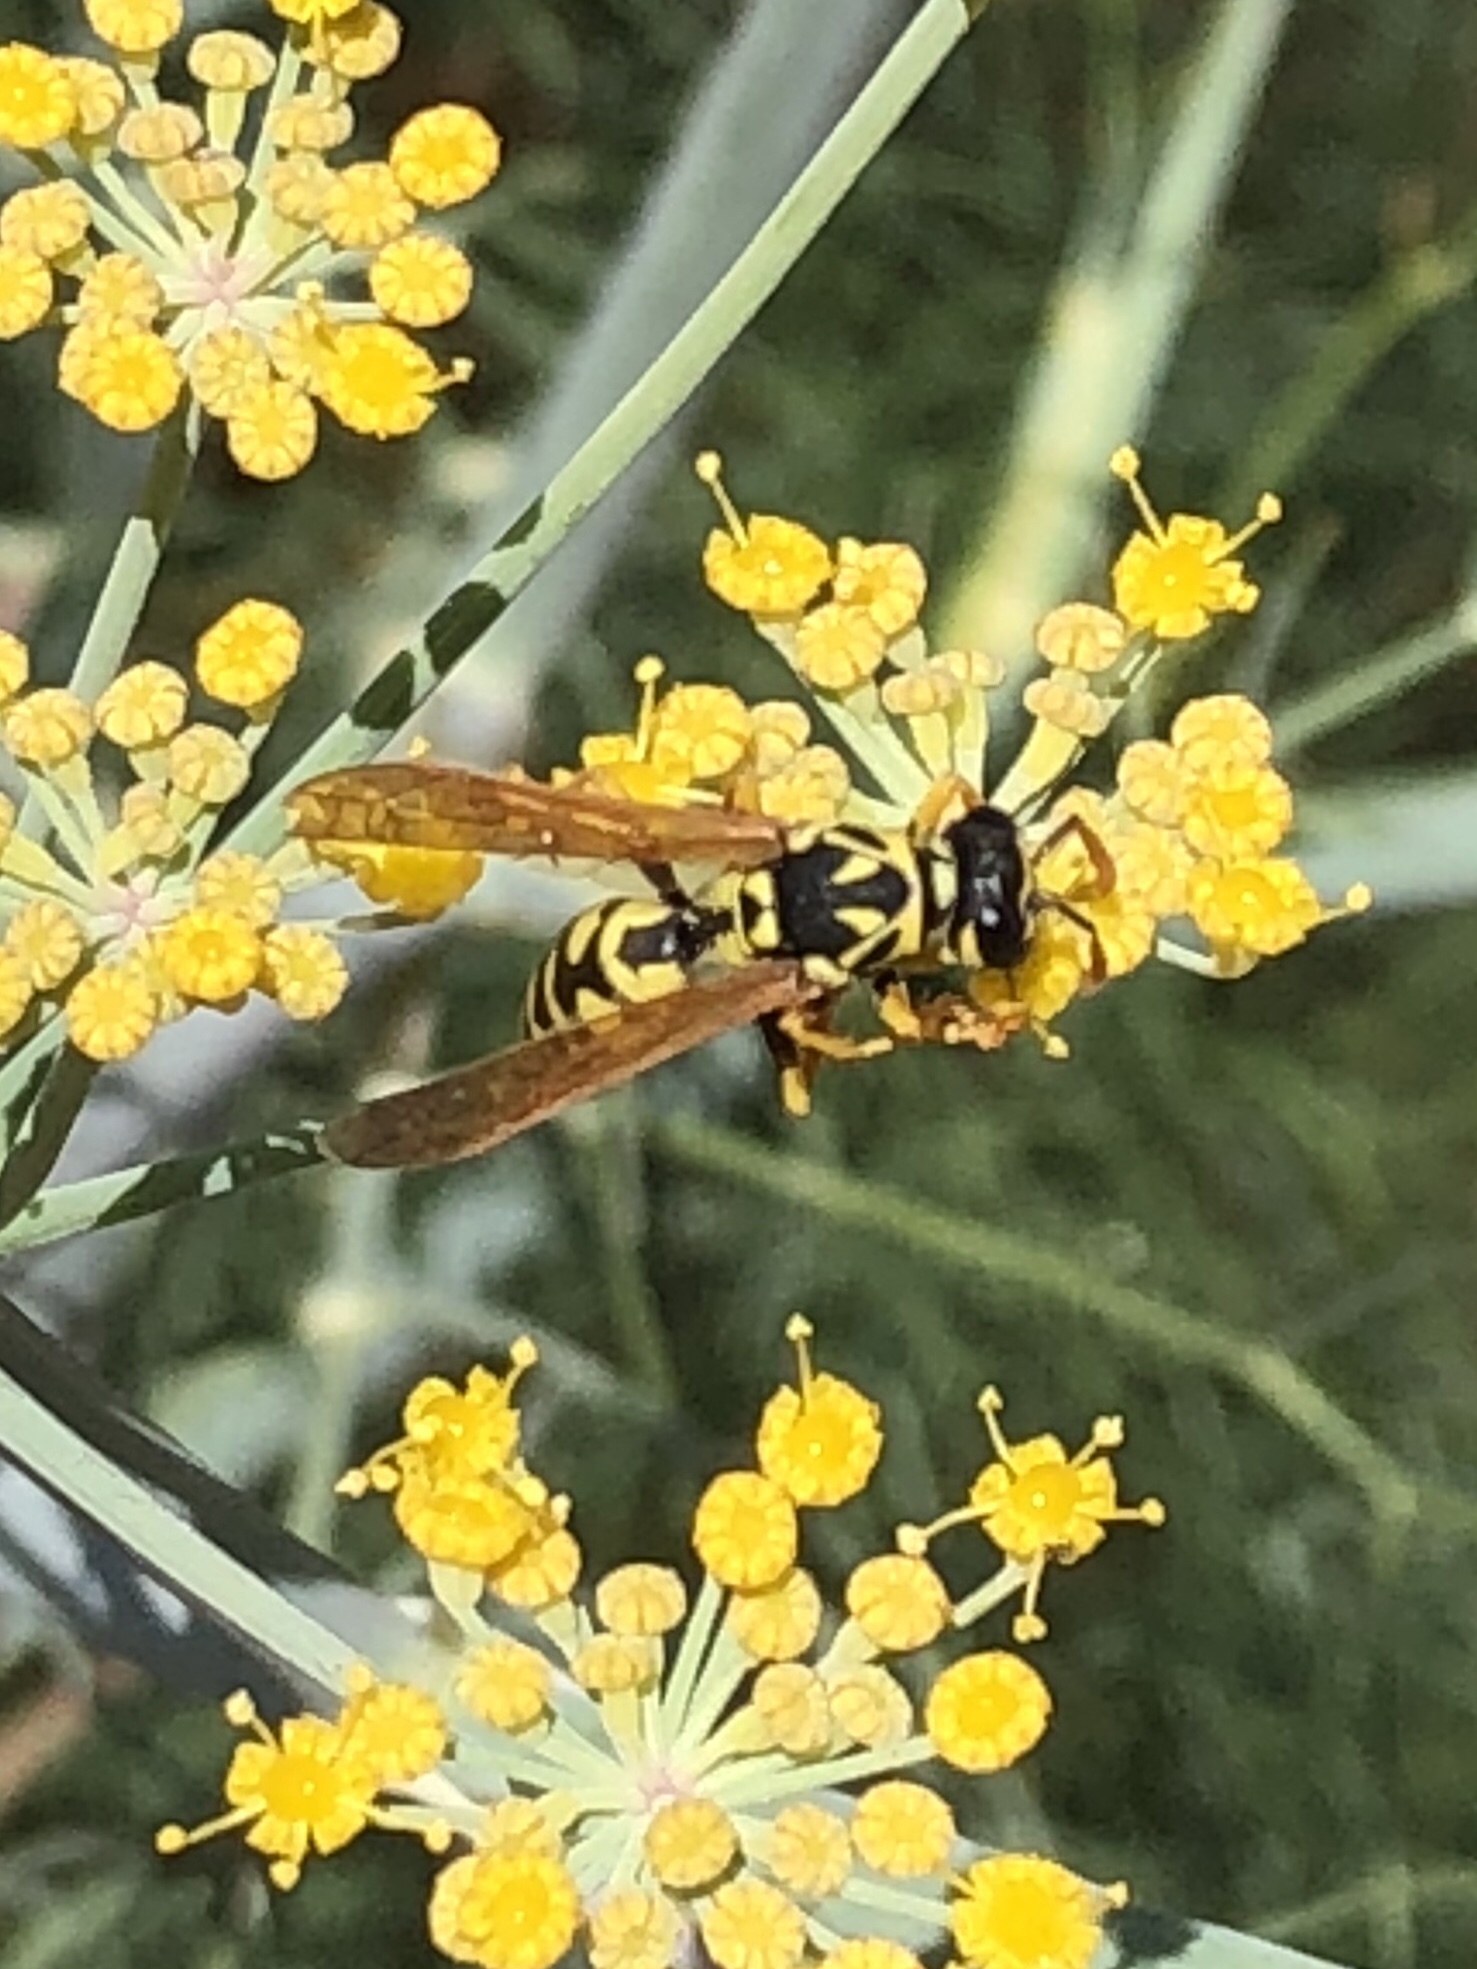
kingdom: Animalia
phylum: Arthropoda
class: Insecta
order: Hymenoptera
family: Eumenidae
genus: Polistes
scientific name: Polistes dominula
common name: Paper wasp
